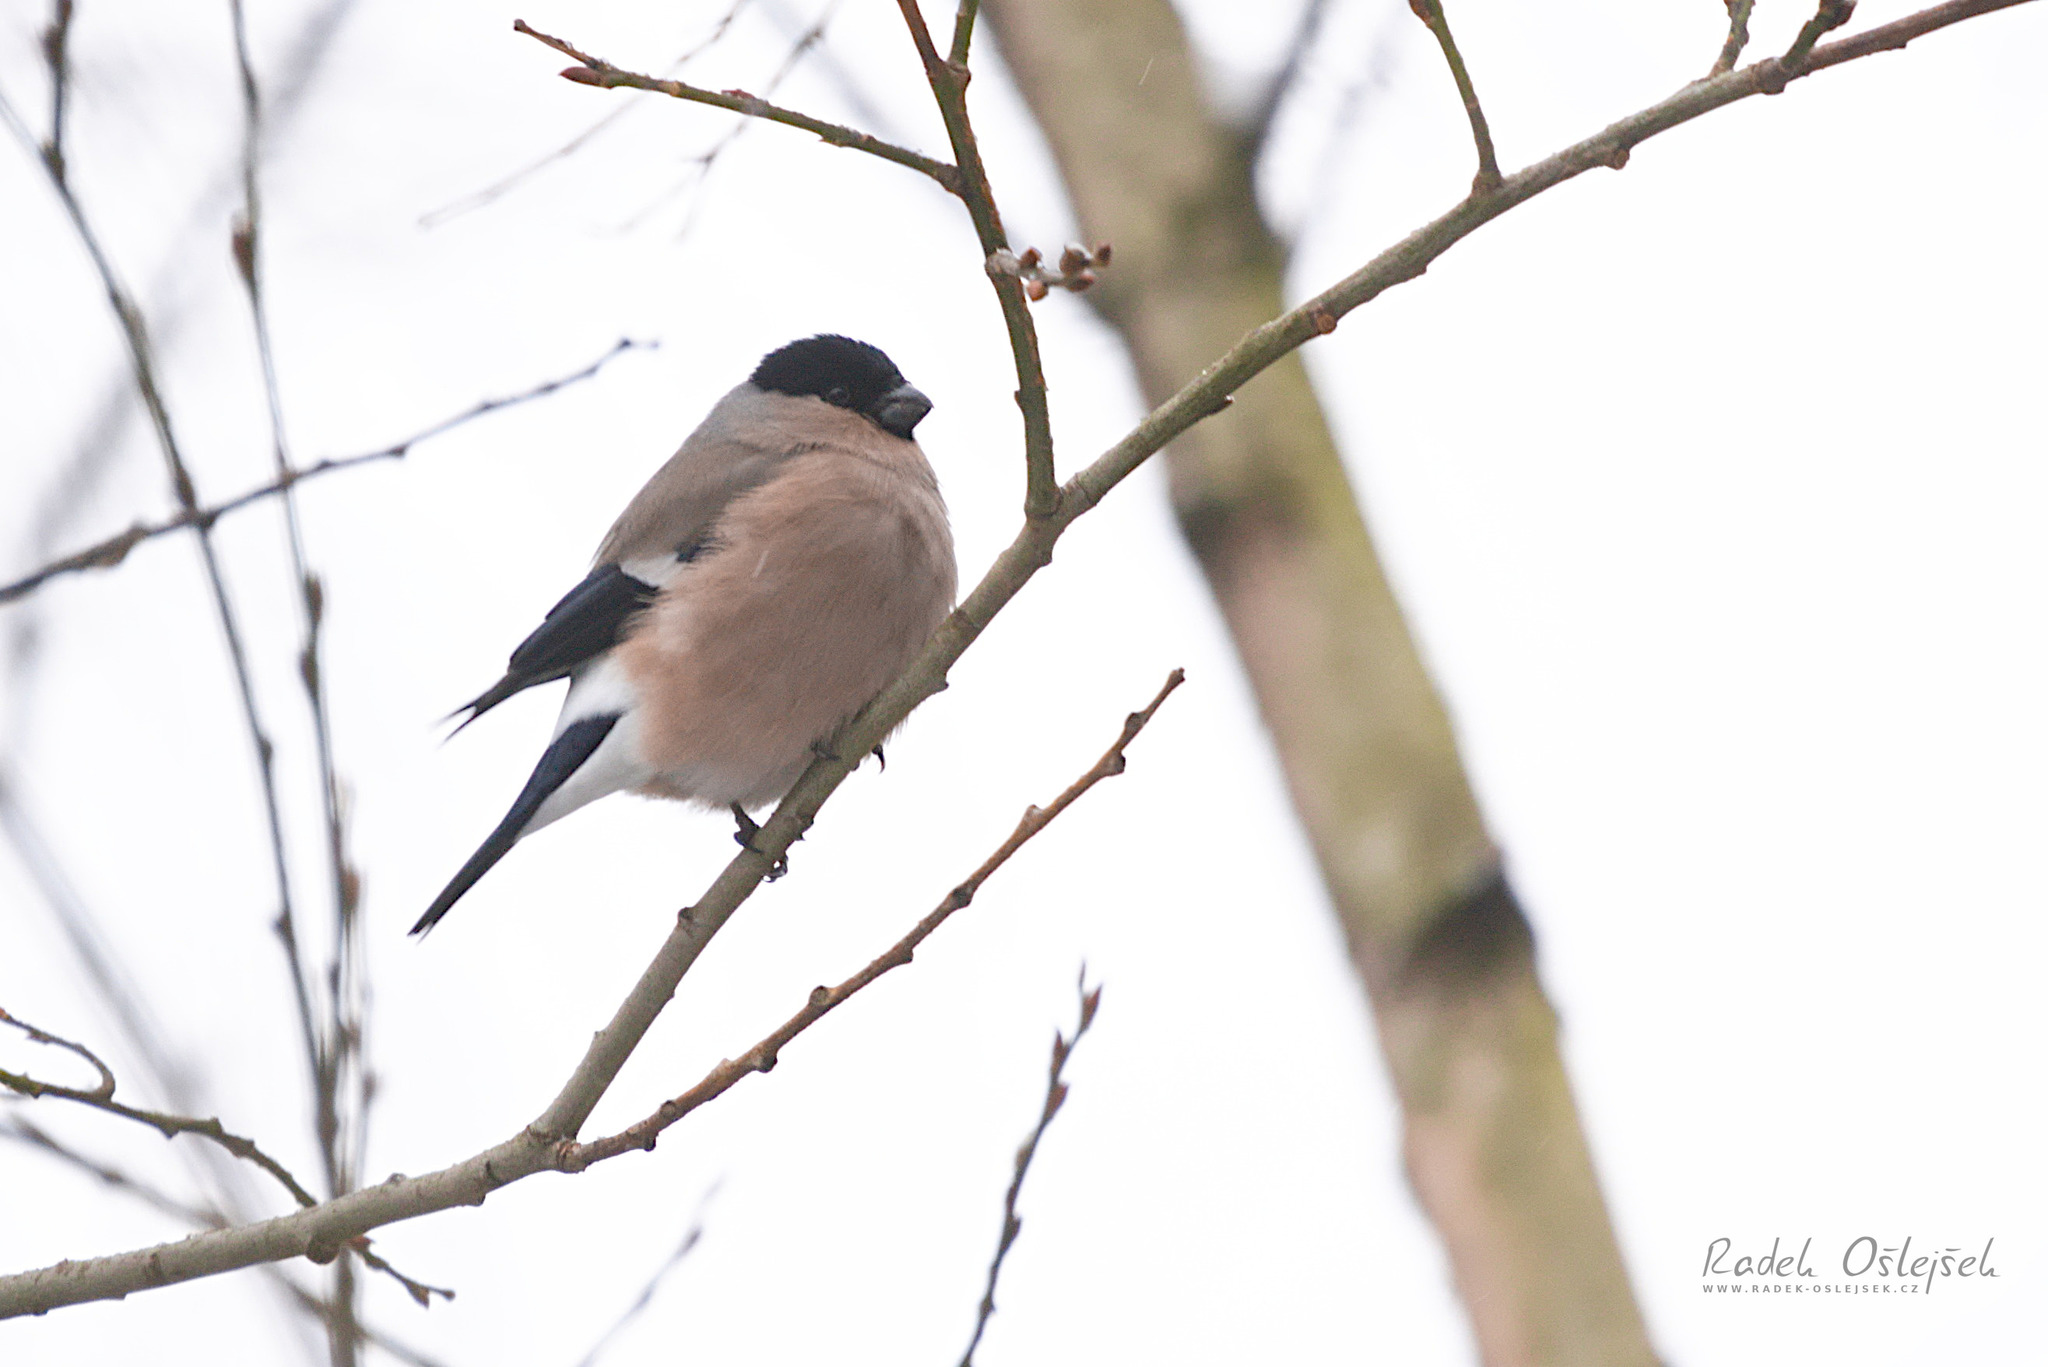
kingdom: Animalia
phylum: Chordata
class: Aves
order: Passeriformes
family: Fringillidae
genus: Pyrrhula
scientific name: Pyrrhula pyrrhula
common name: Eurasian bullfinch
